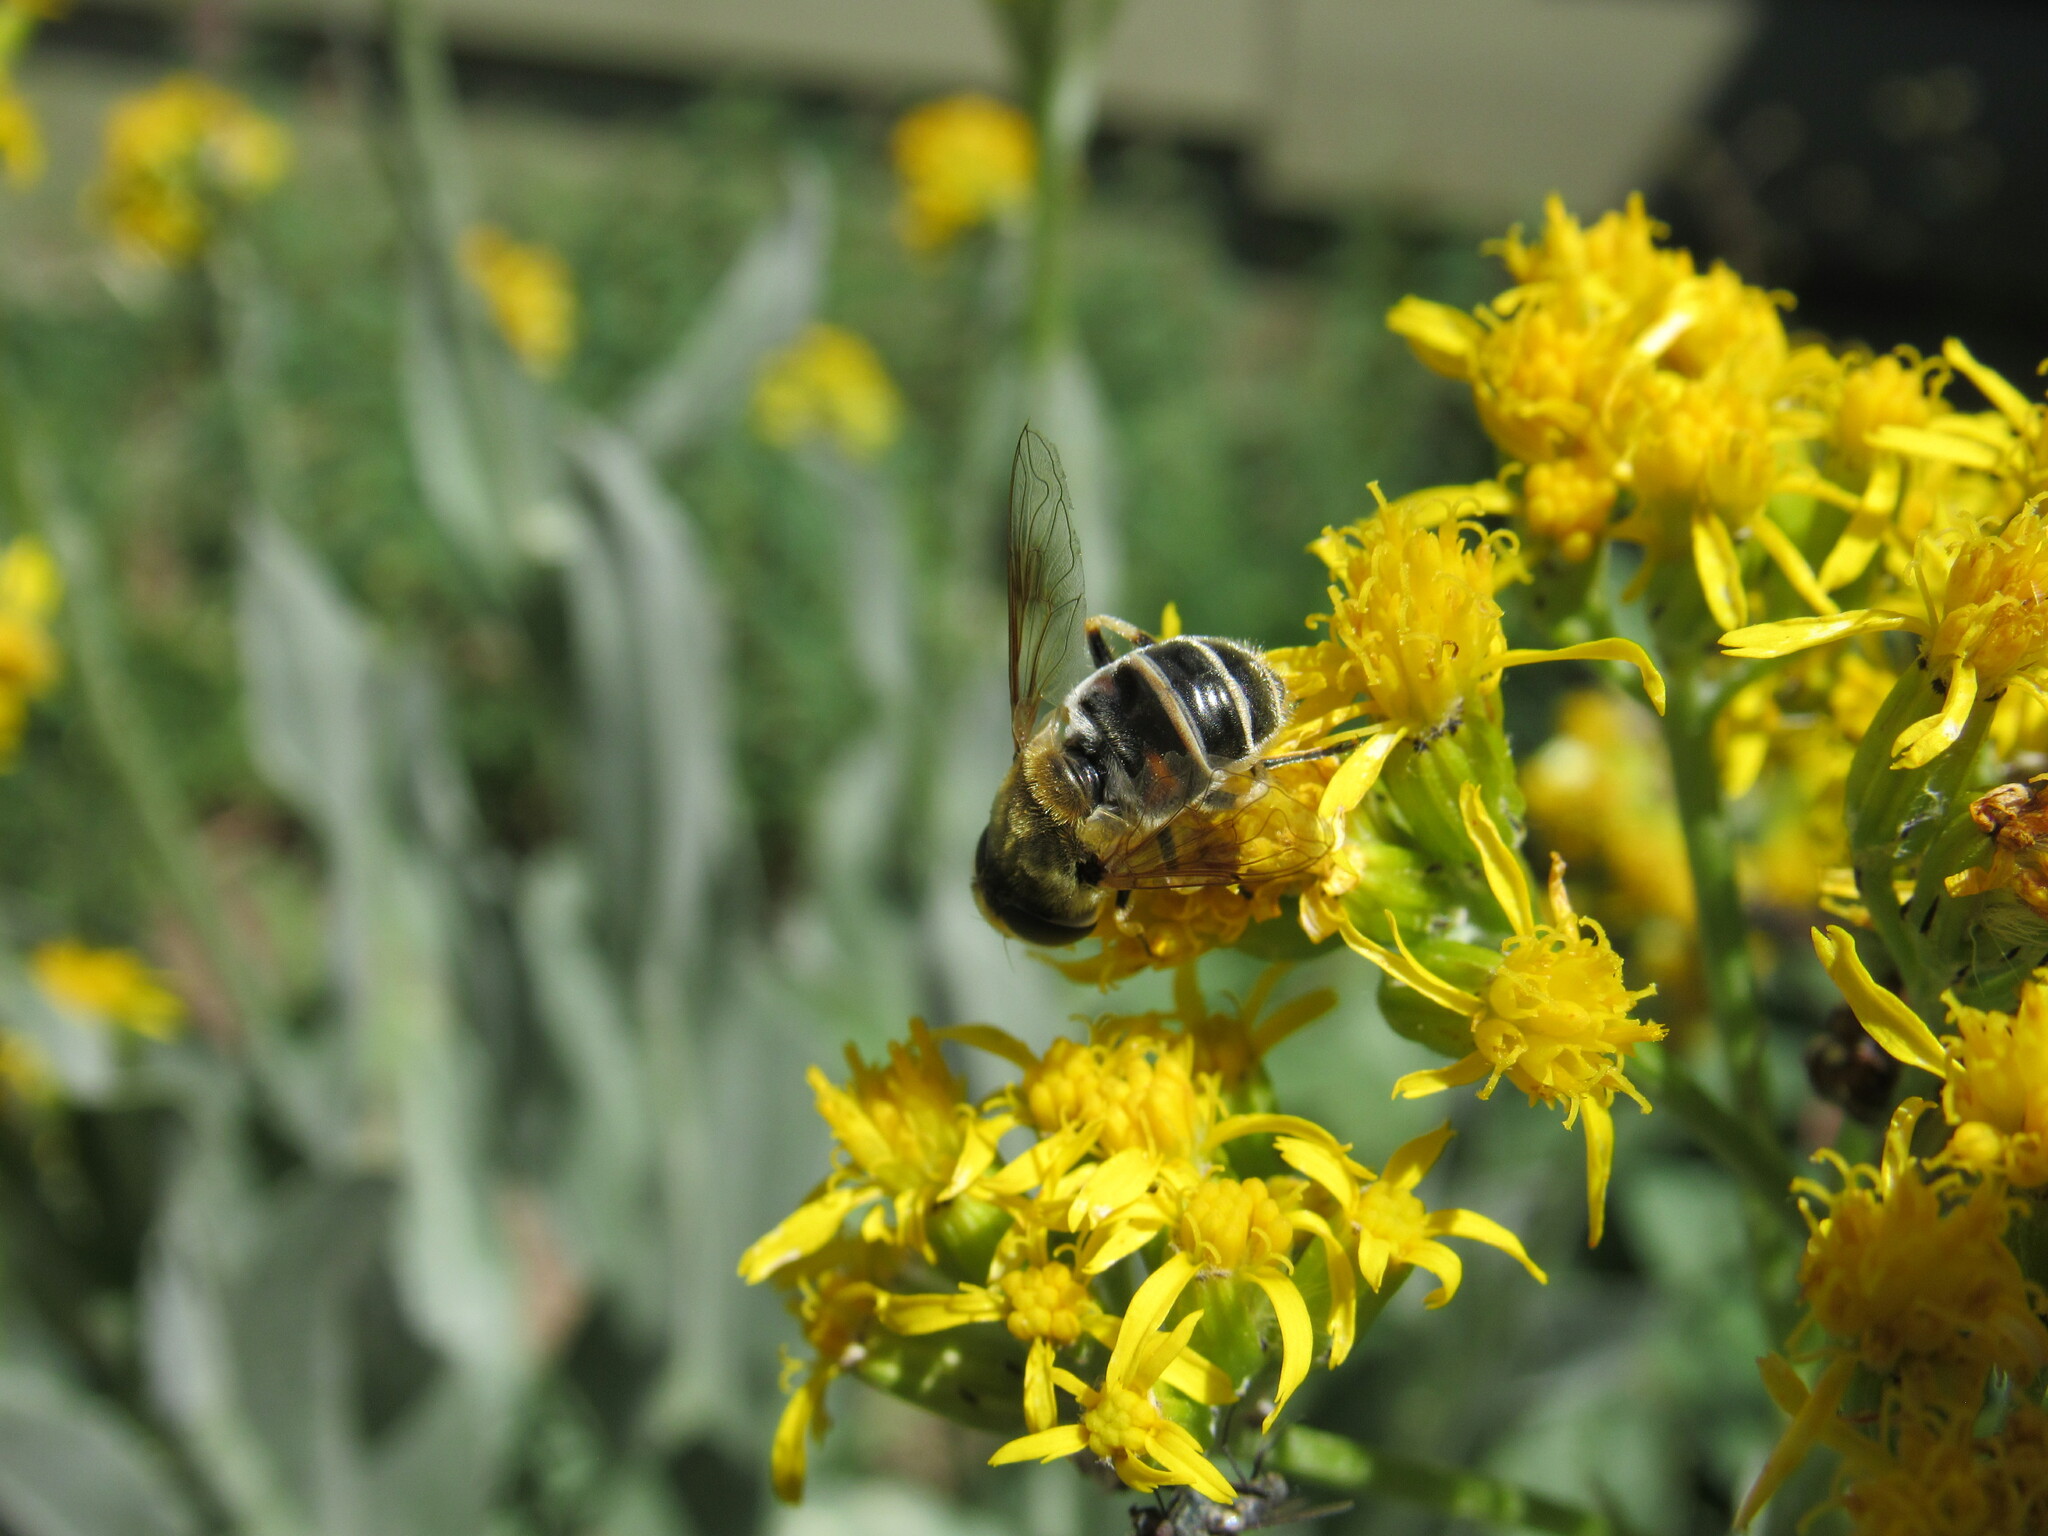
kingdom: Animalia
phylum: Arthropoda
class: Insecta
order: Diptera
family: Syrphidae
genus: Eristalis
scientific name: Eristalis stipator
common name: Yellow-shouldered drone fly
